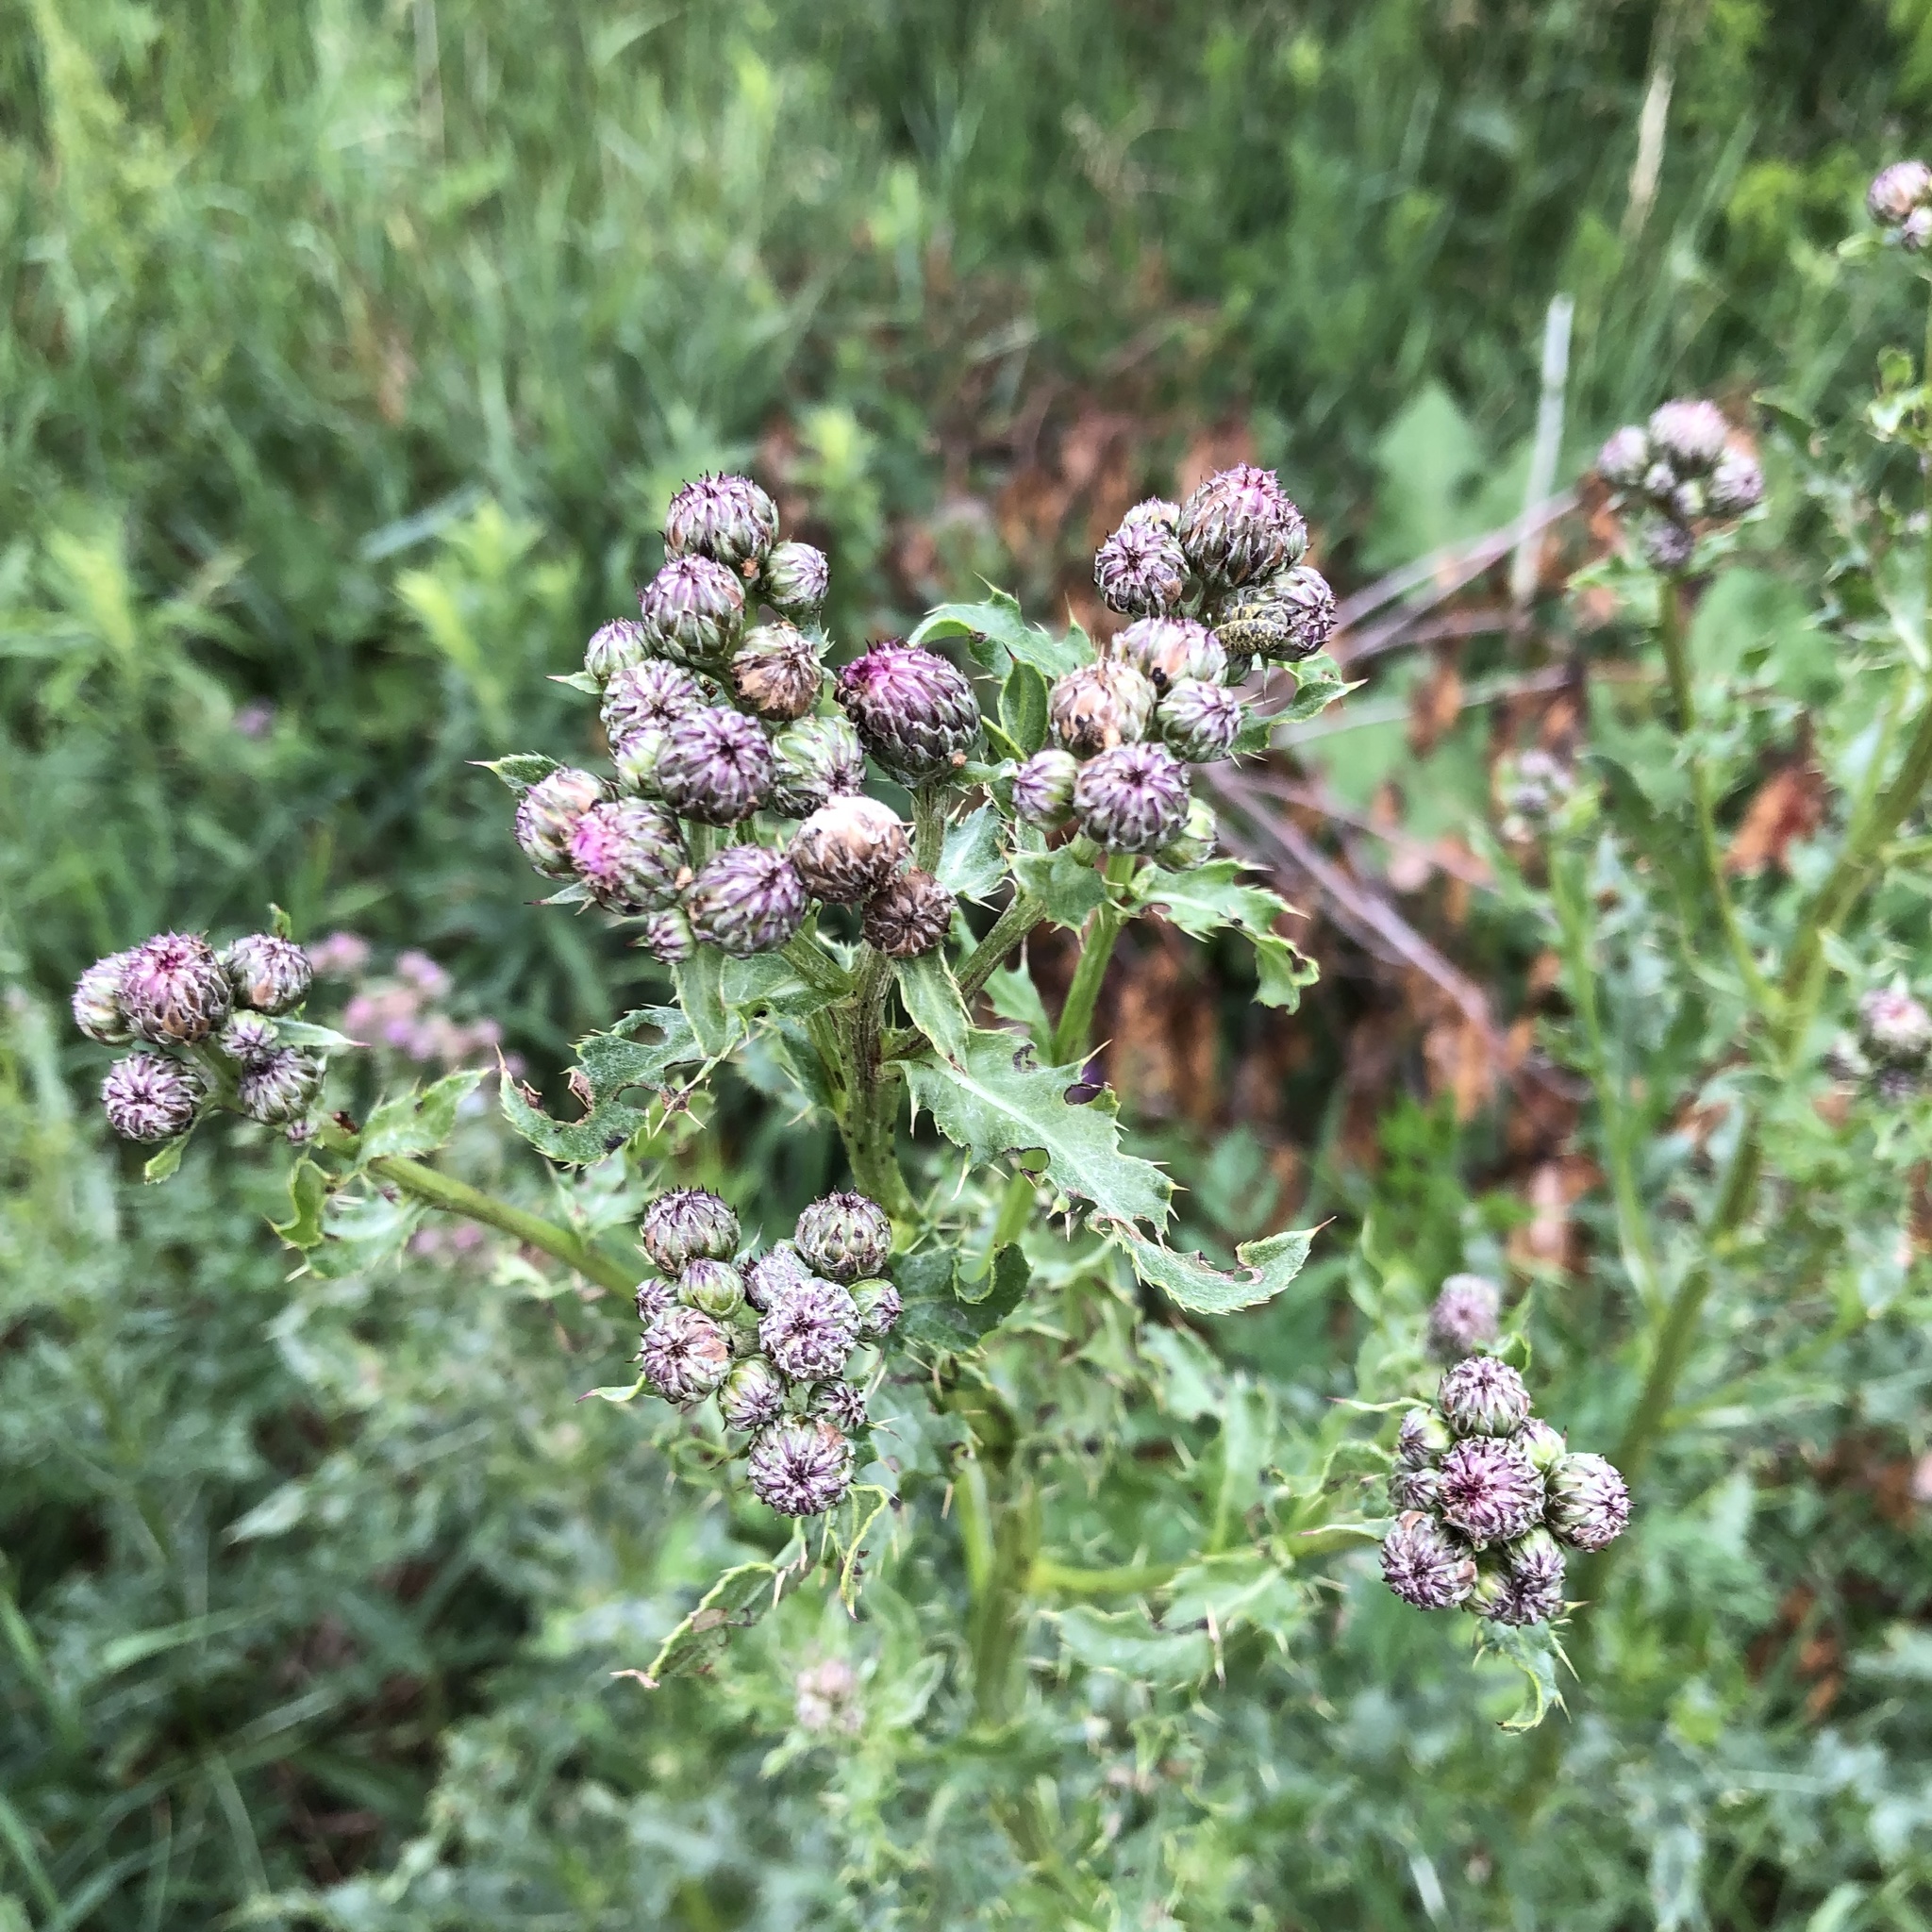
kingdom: Plantae
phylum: Tracheophyta
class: Magnoliopsida
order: Asterales
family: Asteraceae
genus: Cirsium
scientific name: Cirsium arvense
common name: Creeping thistle
